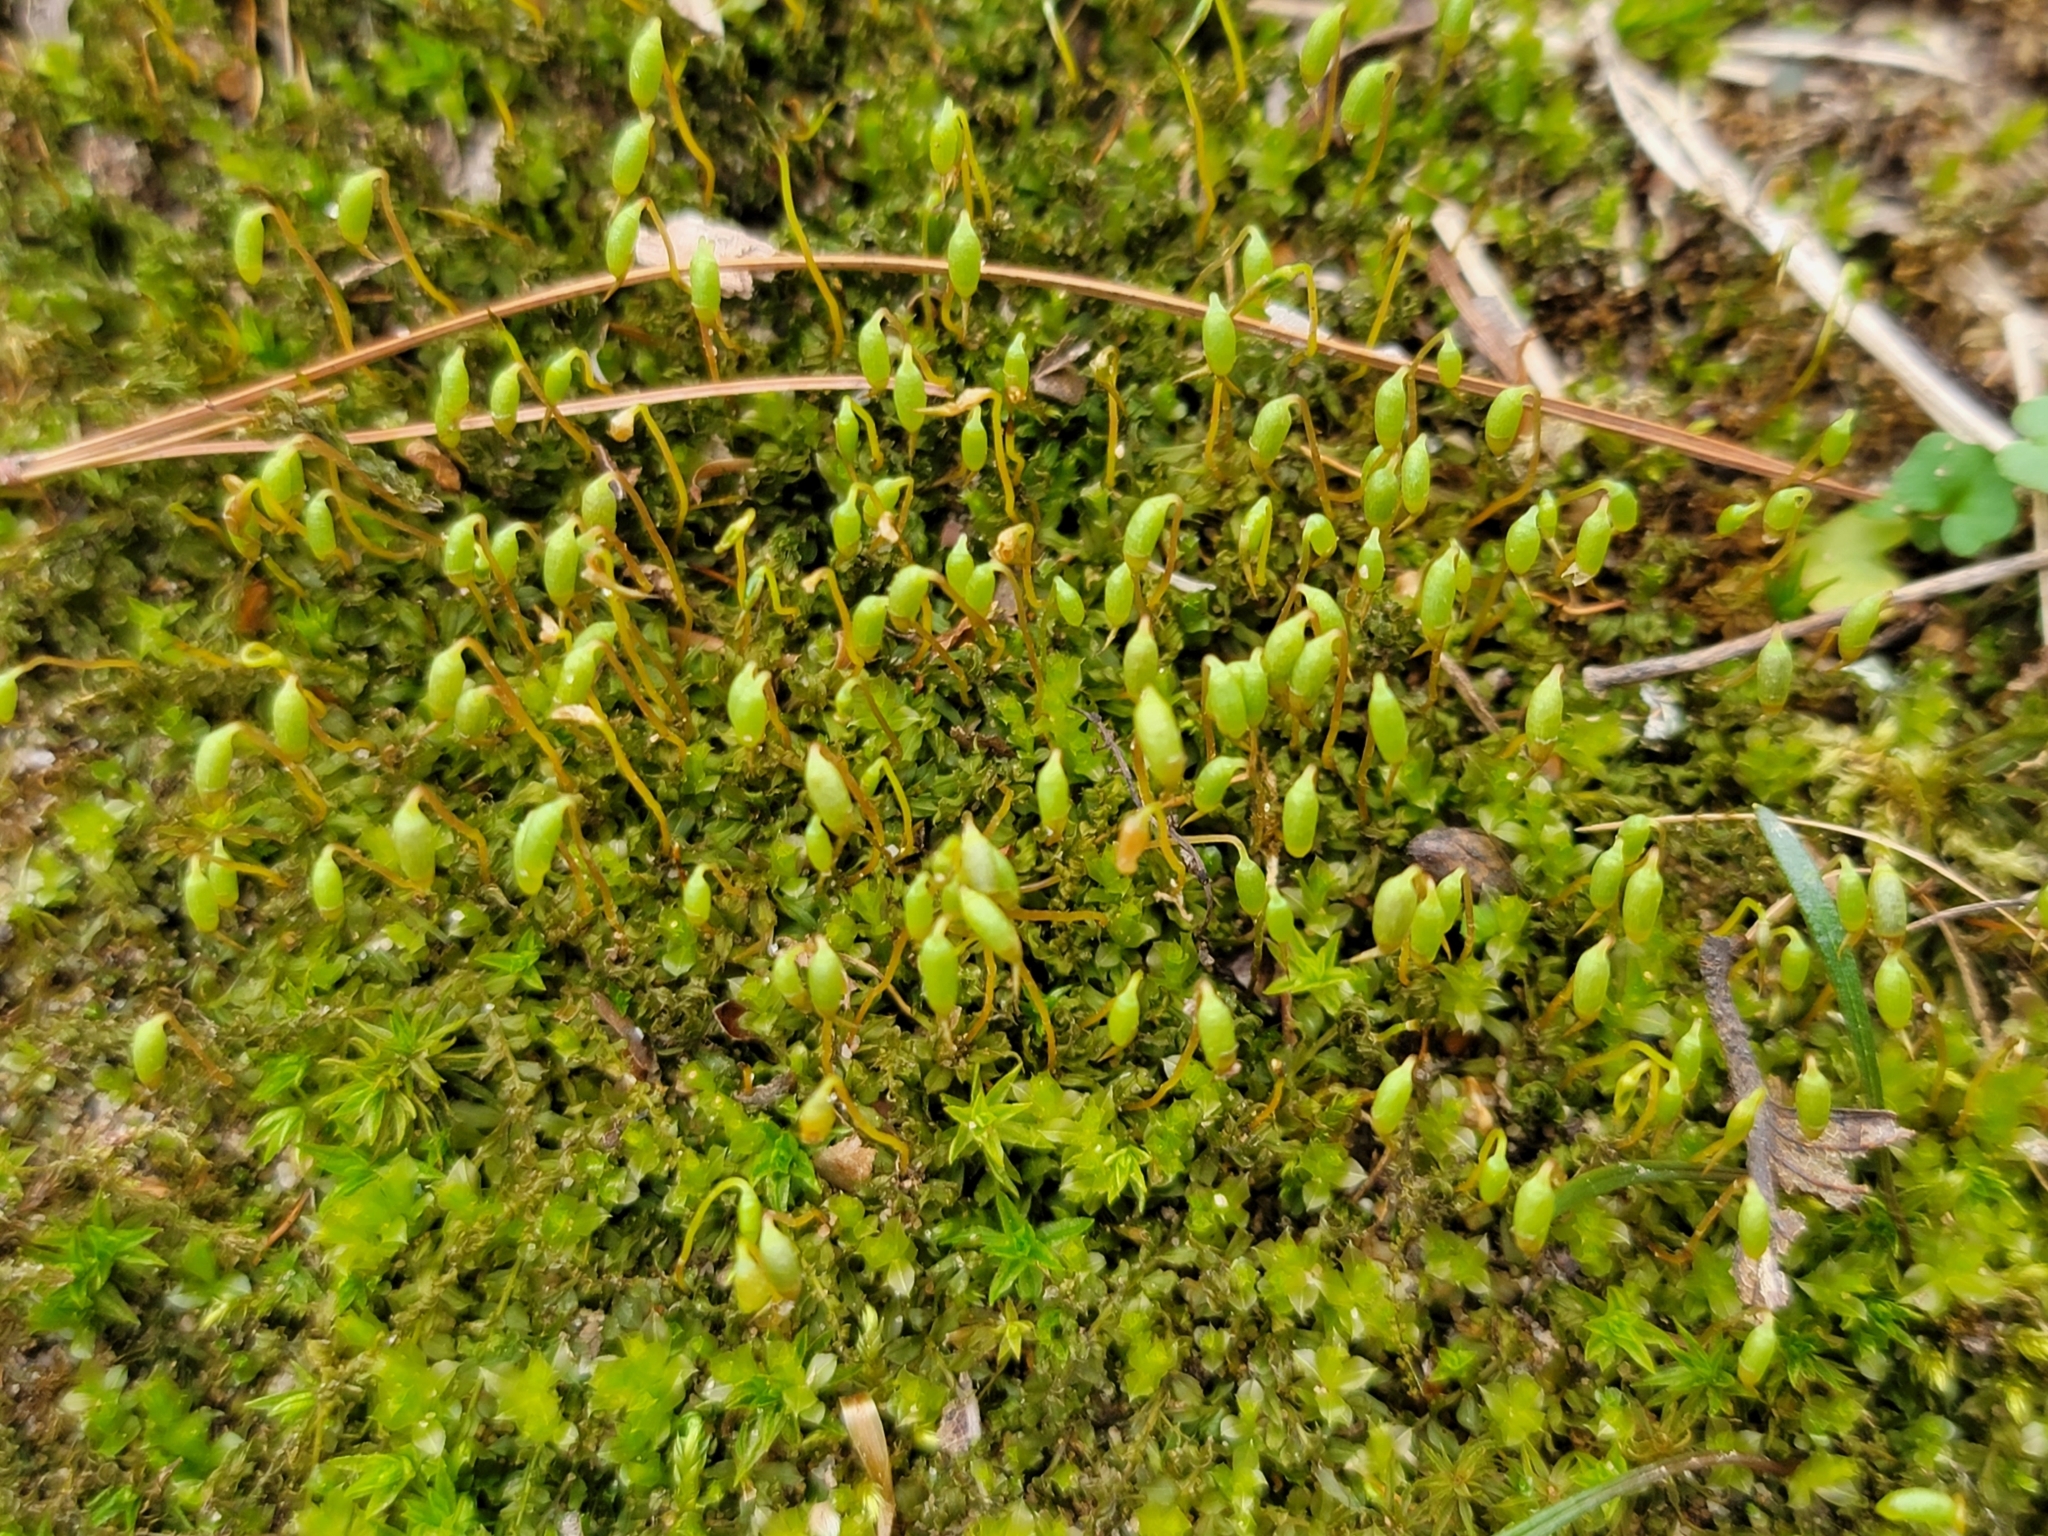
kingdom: Plantae
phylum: Bryophyta
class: Bryopsida
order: Bryales
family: Mniaceae
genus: Plagiomnium
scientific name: Plagiomnium cuspidatum
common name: Woodsy leafy moss
